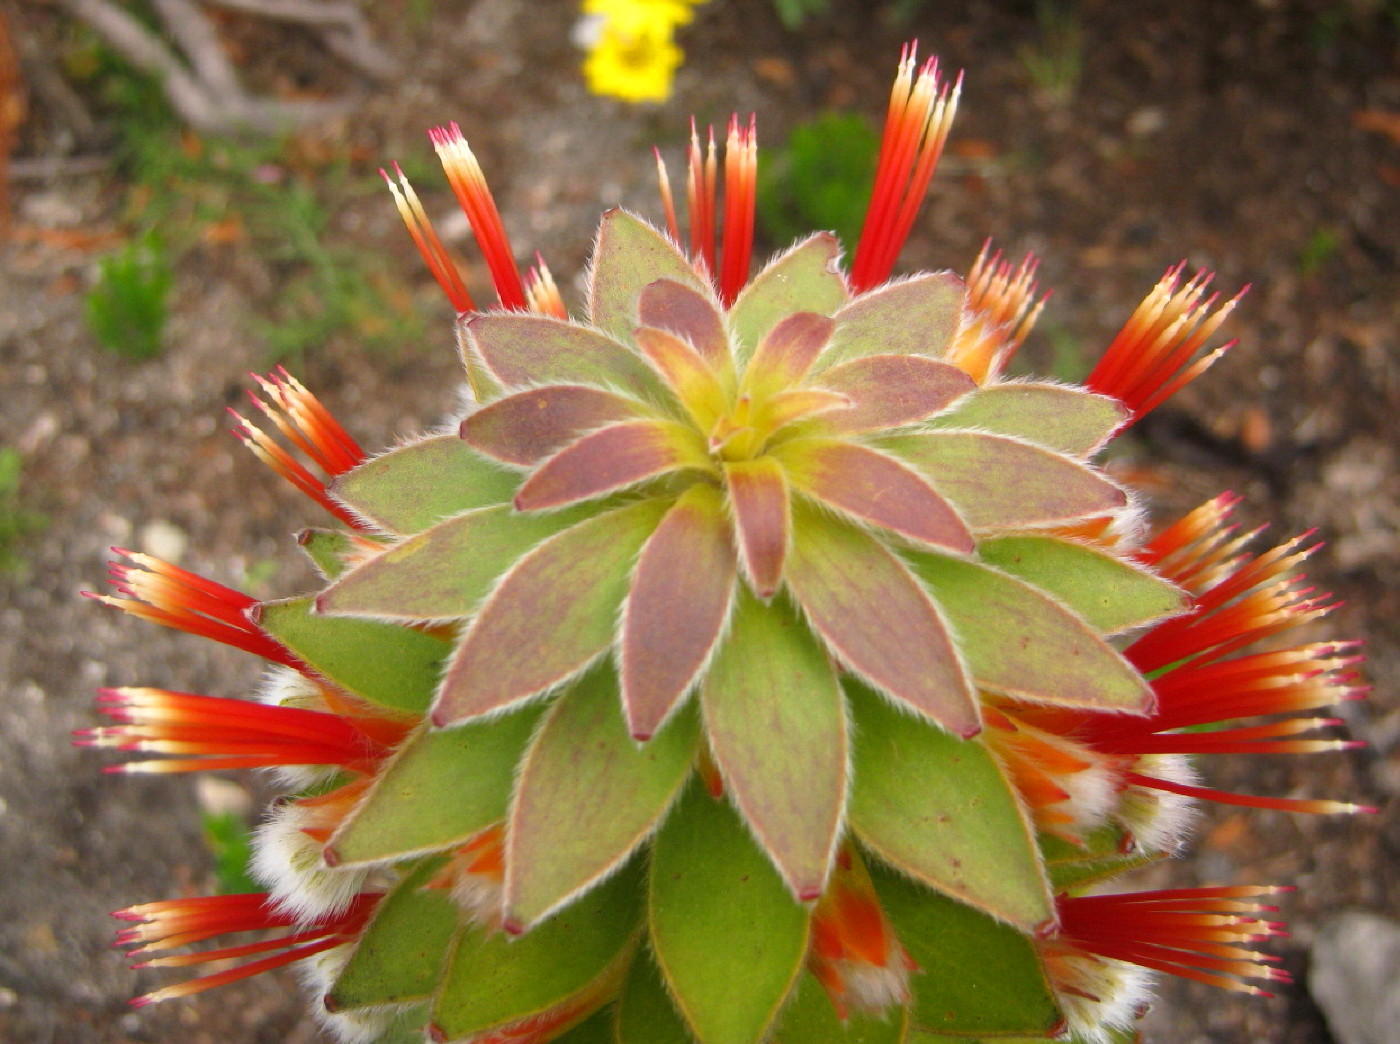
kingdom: Plantae
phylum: Tracheophyta
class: Magnoliopsida
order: Proteales
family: Proteaceae
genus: Mimetes
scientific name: Mimetes hirtus
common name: Marsh pagoda
